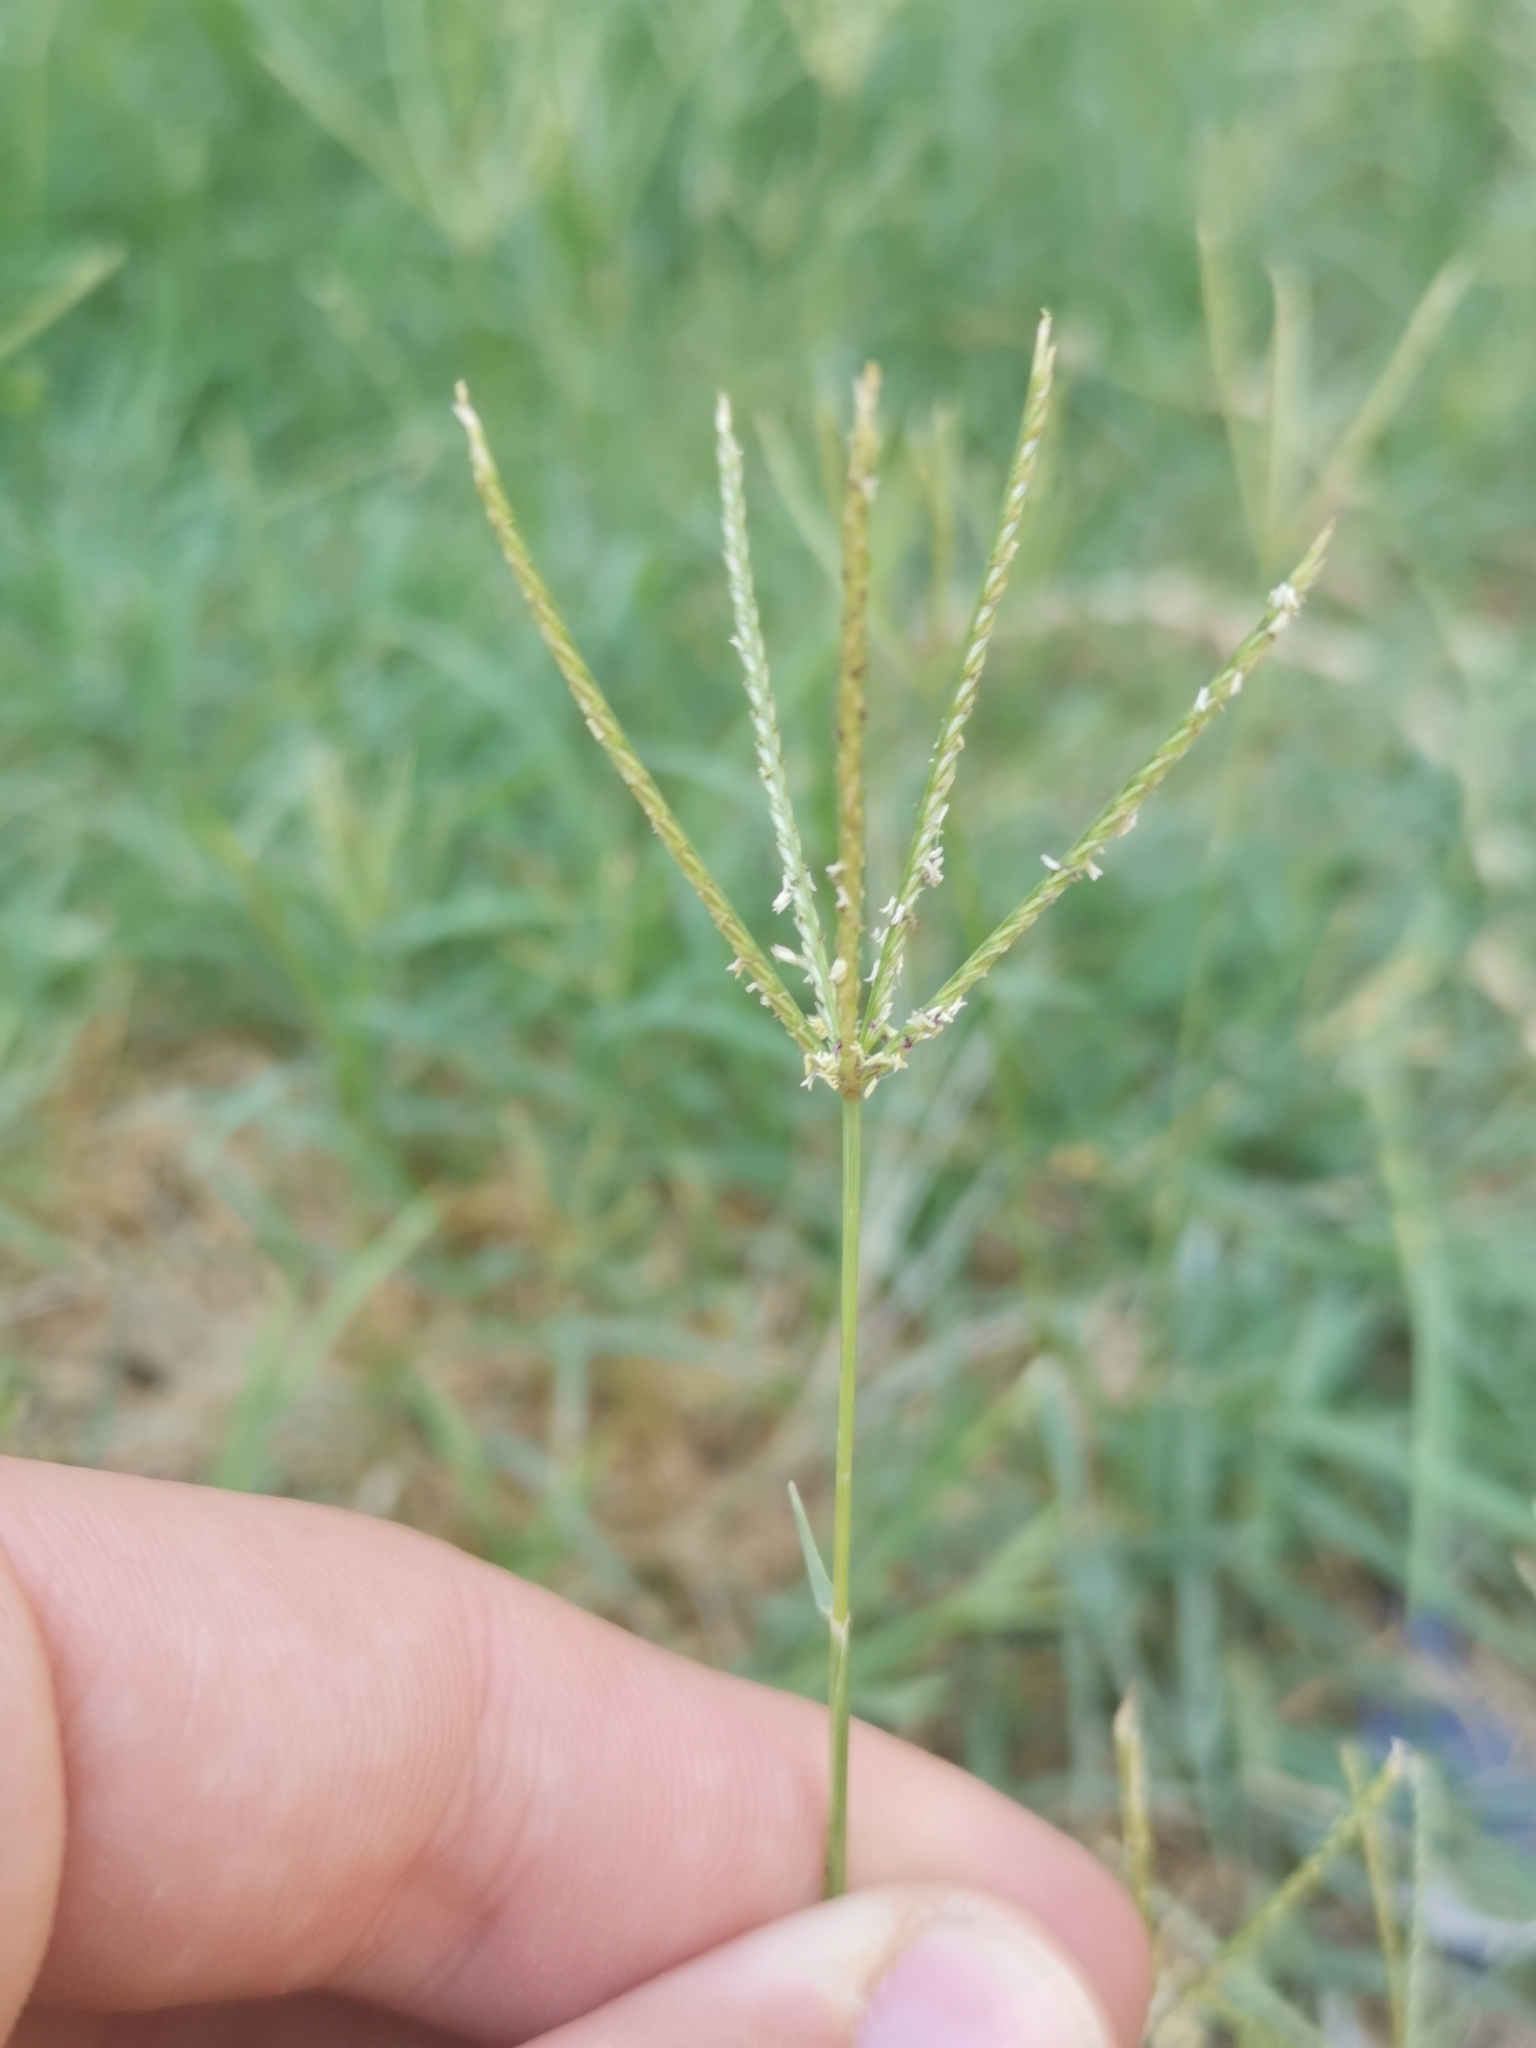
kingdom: Plantae
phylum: Tracheophyta
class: Liliopsida
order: Poales
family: Poaceae
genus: Cynodon
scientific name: Cynodon dactylon
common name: Bermuda grass
